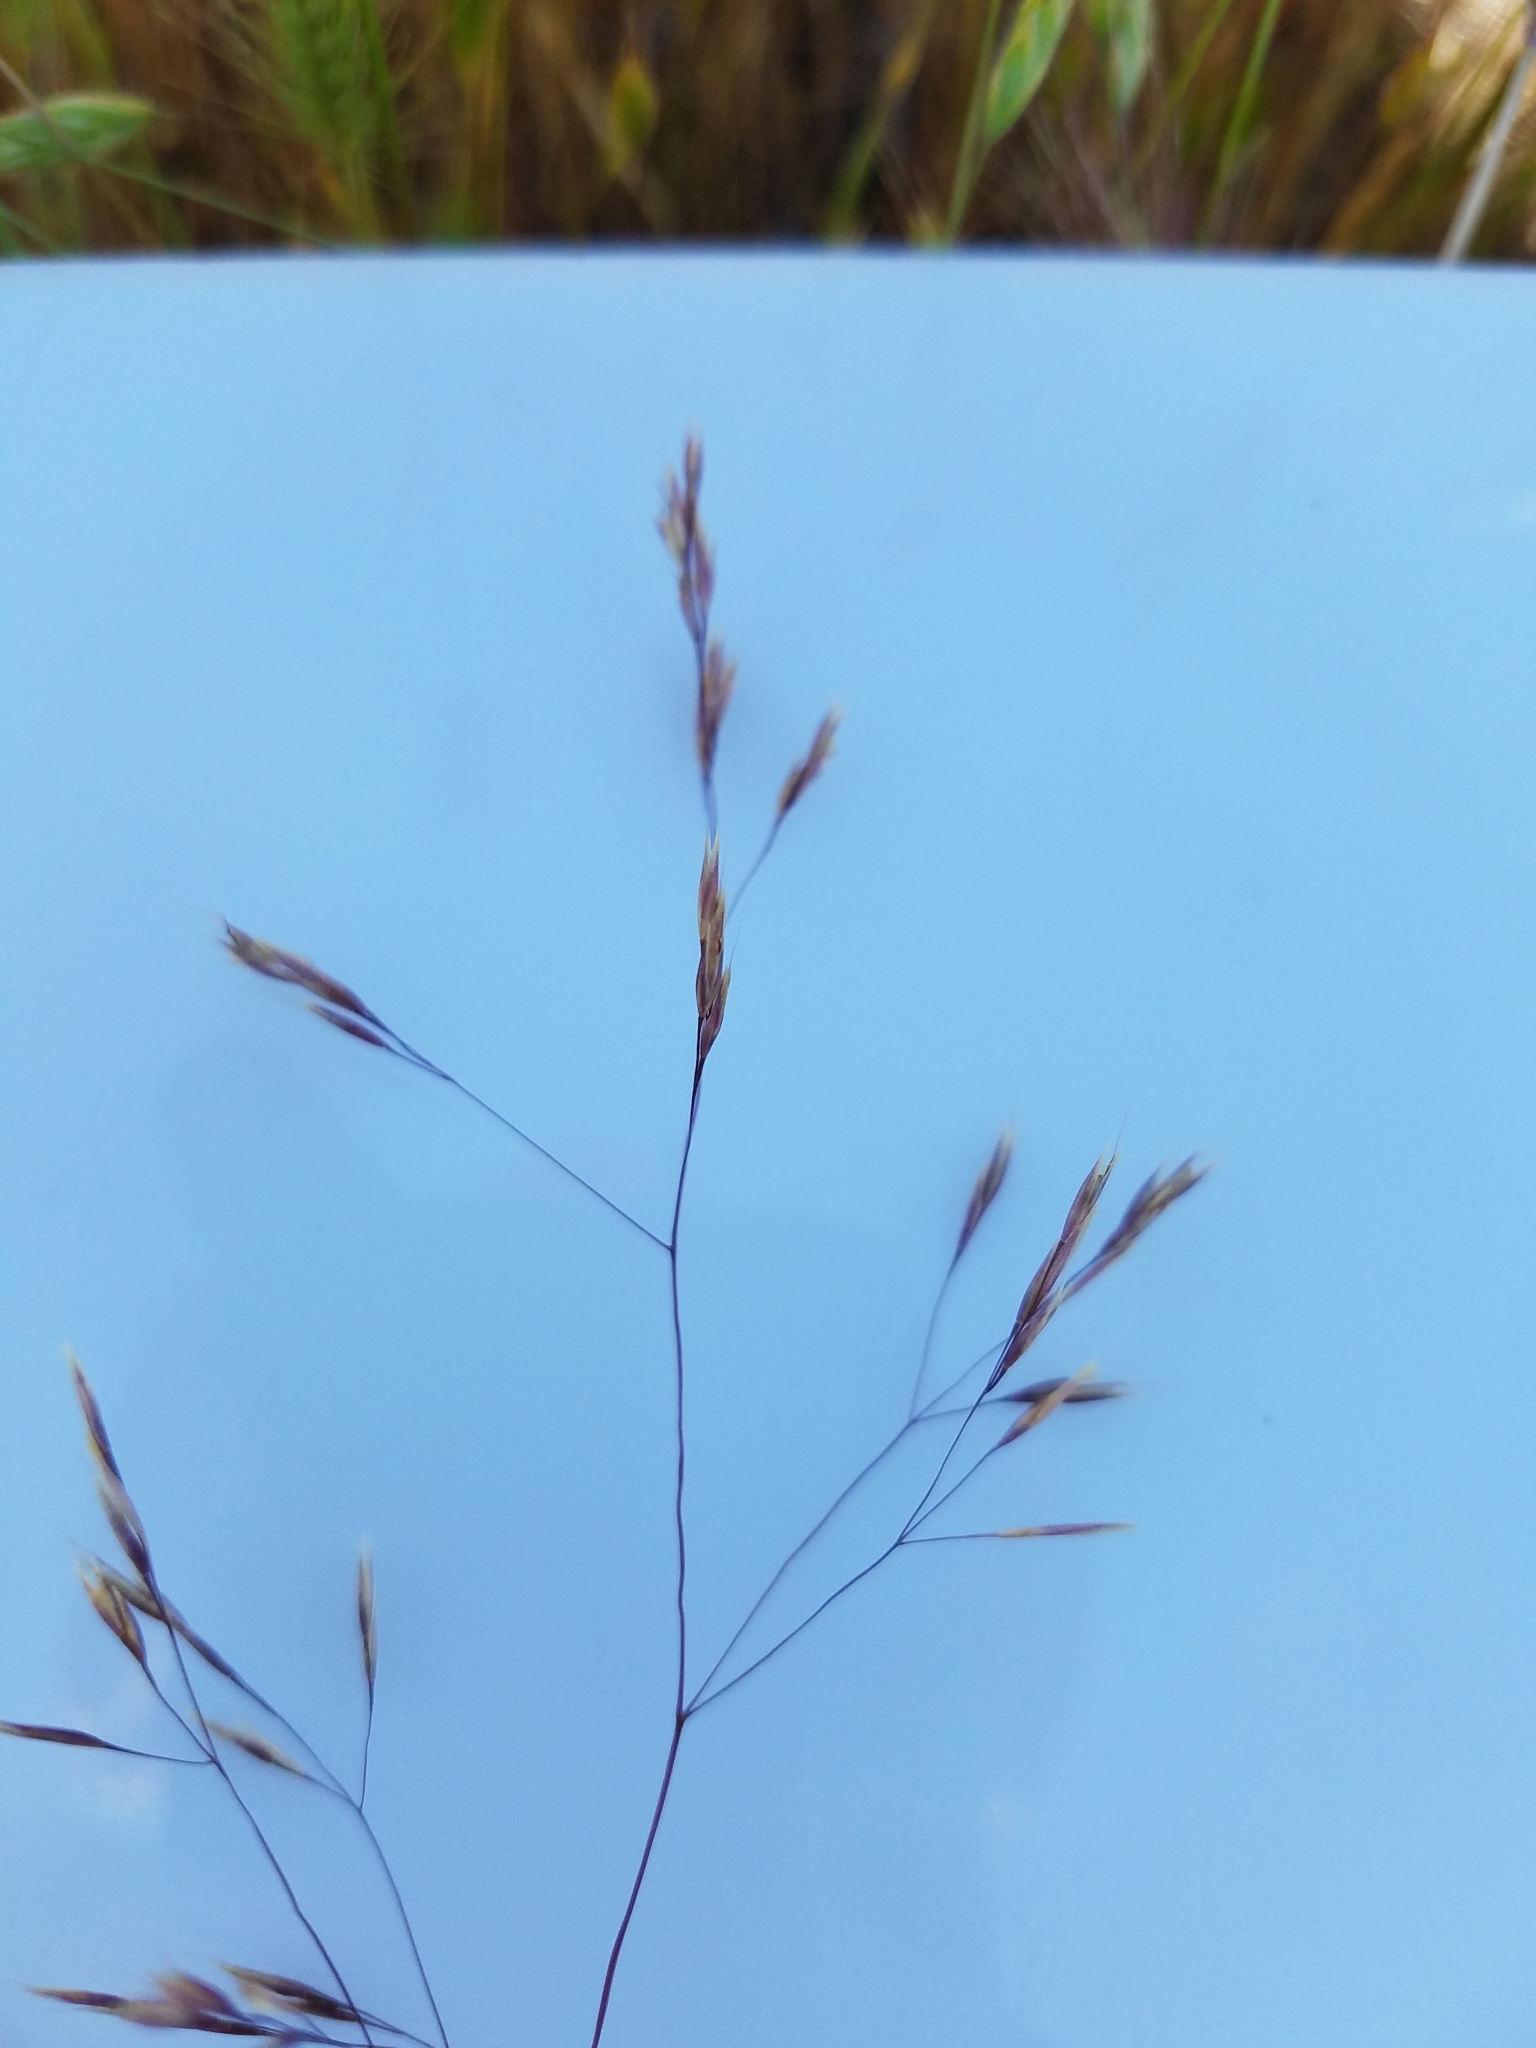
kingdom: Plantae
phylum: Tracheophyta
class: Liliopsida
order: Poales
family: Poaceae
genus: Deschampsia
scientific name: Deschampsia danthonioides
